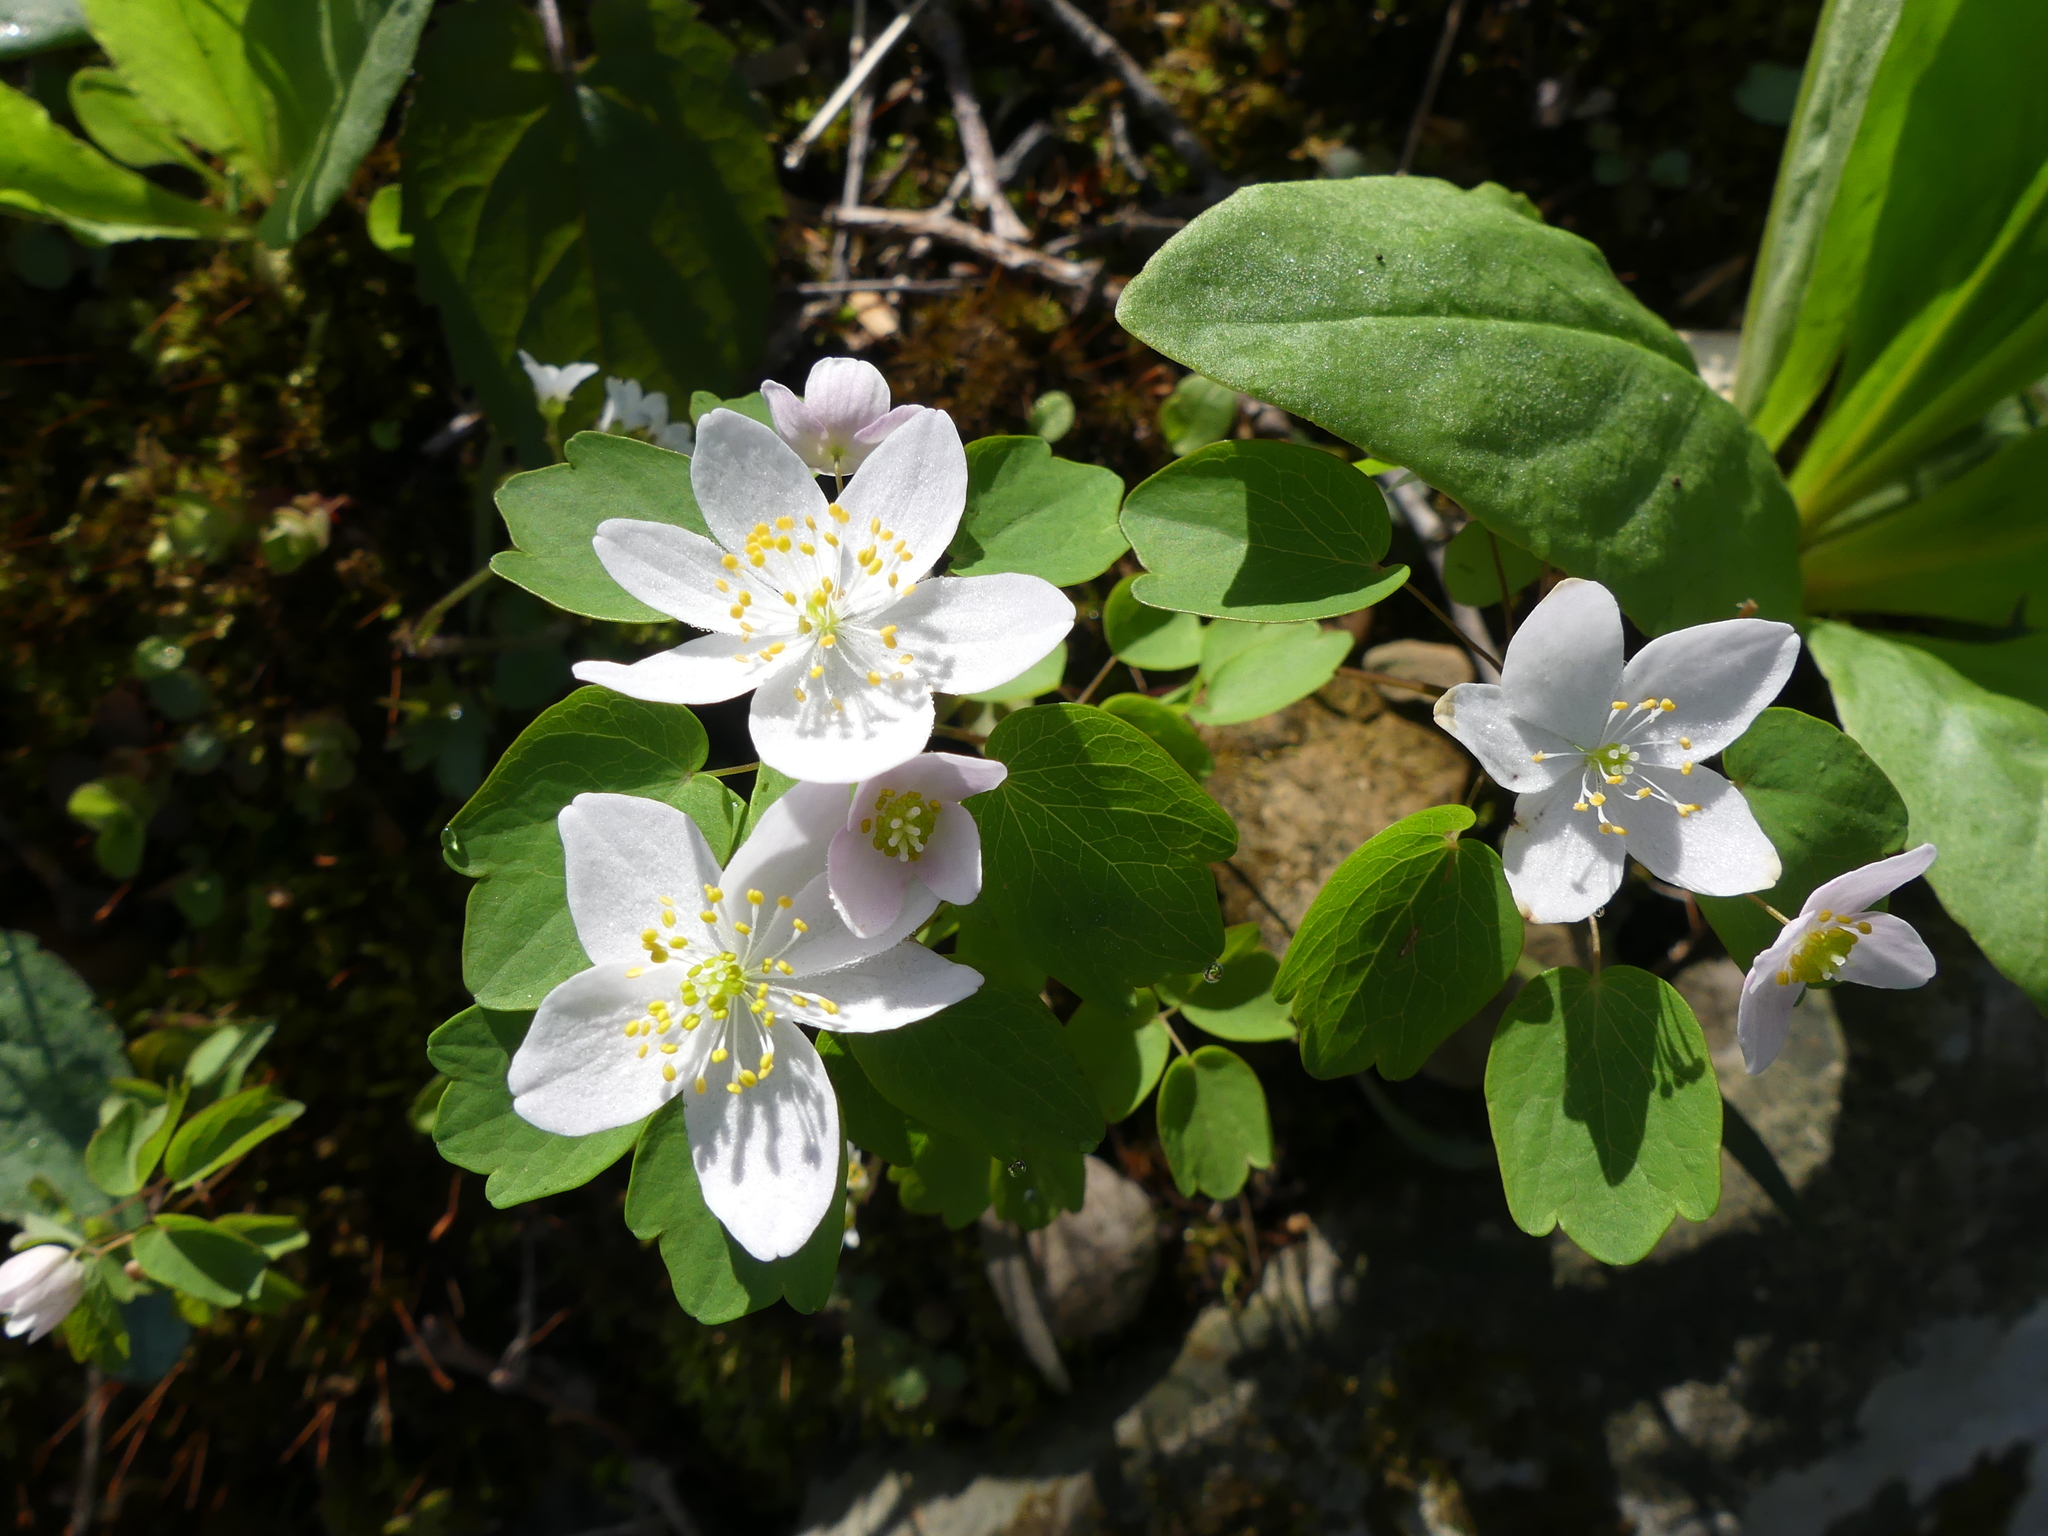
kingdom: Plantae
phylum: Tracheophyta
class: Magnoliopsida
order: Ranunculales
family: Ranunculaceae
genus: Thalictrum
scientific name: Thalictrum thalictroides
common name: Rue-anemone
